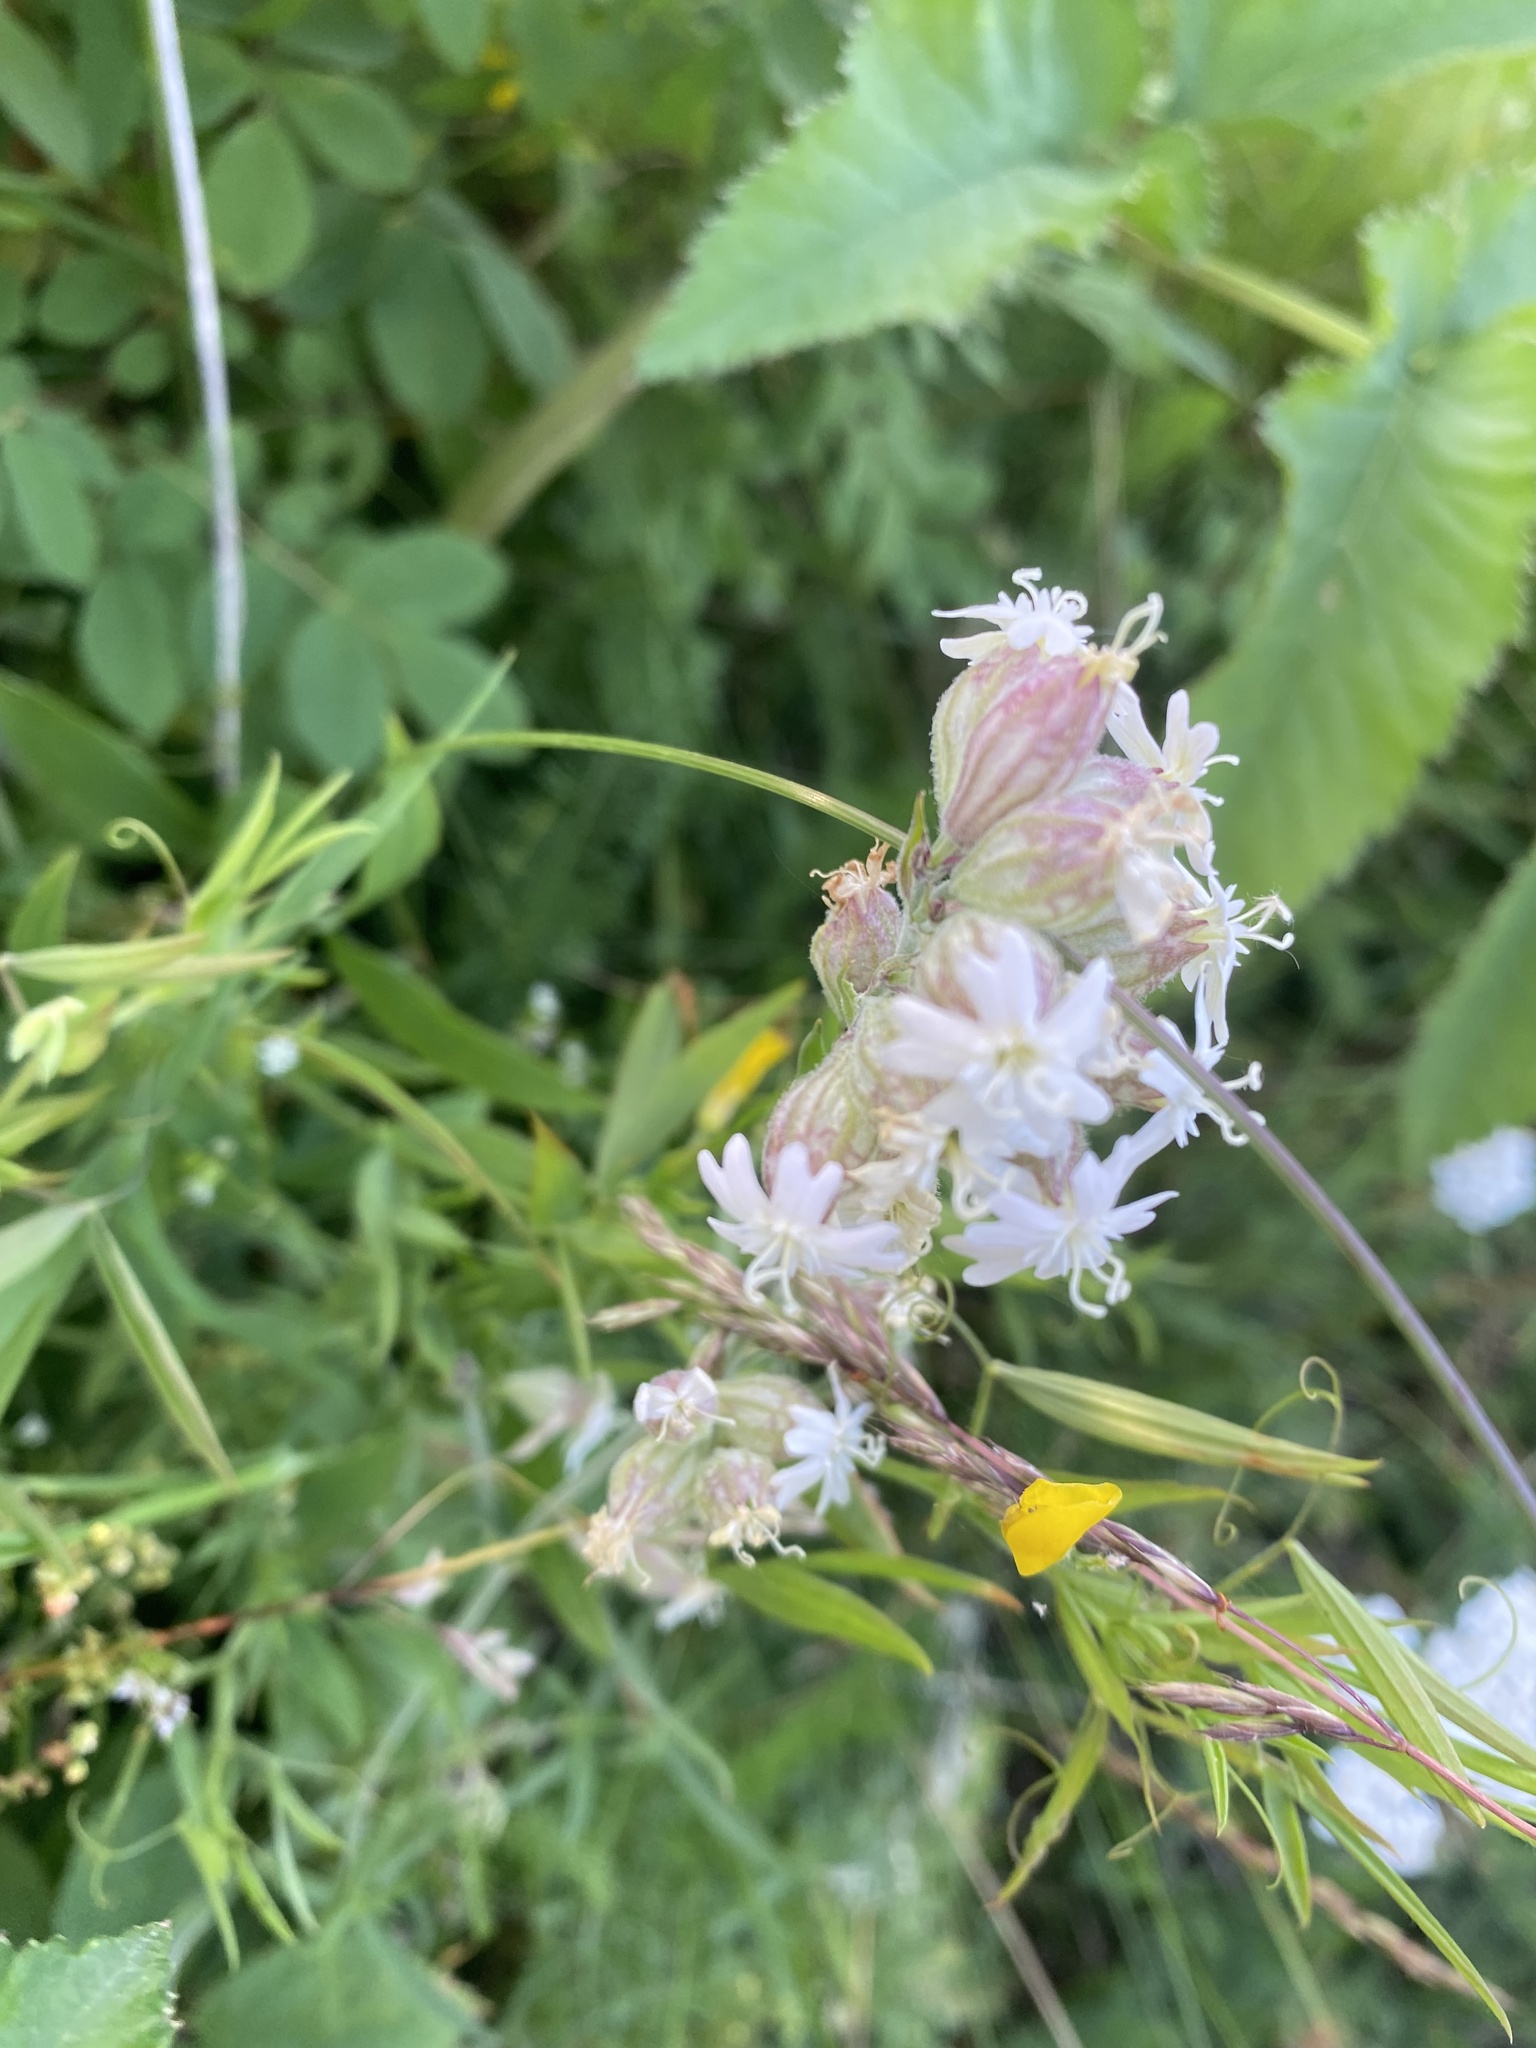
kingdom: Plantae
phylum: Tracheophyta
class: Magnoliopsida
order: Caryophyllales
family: Caryophyllaceae
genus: Silene
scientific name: Silene amoena
